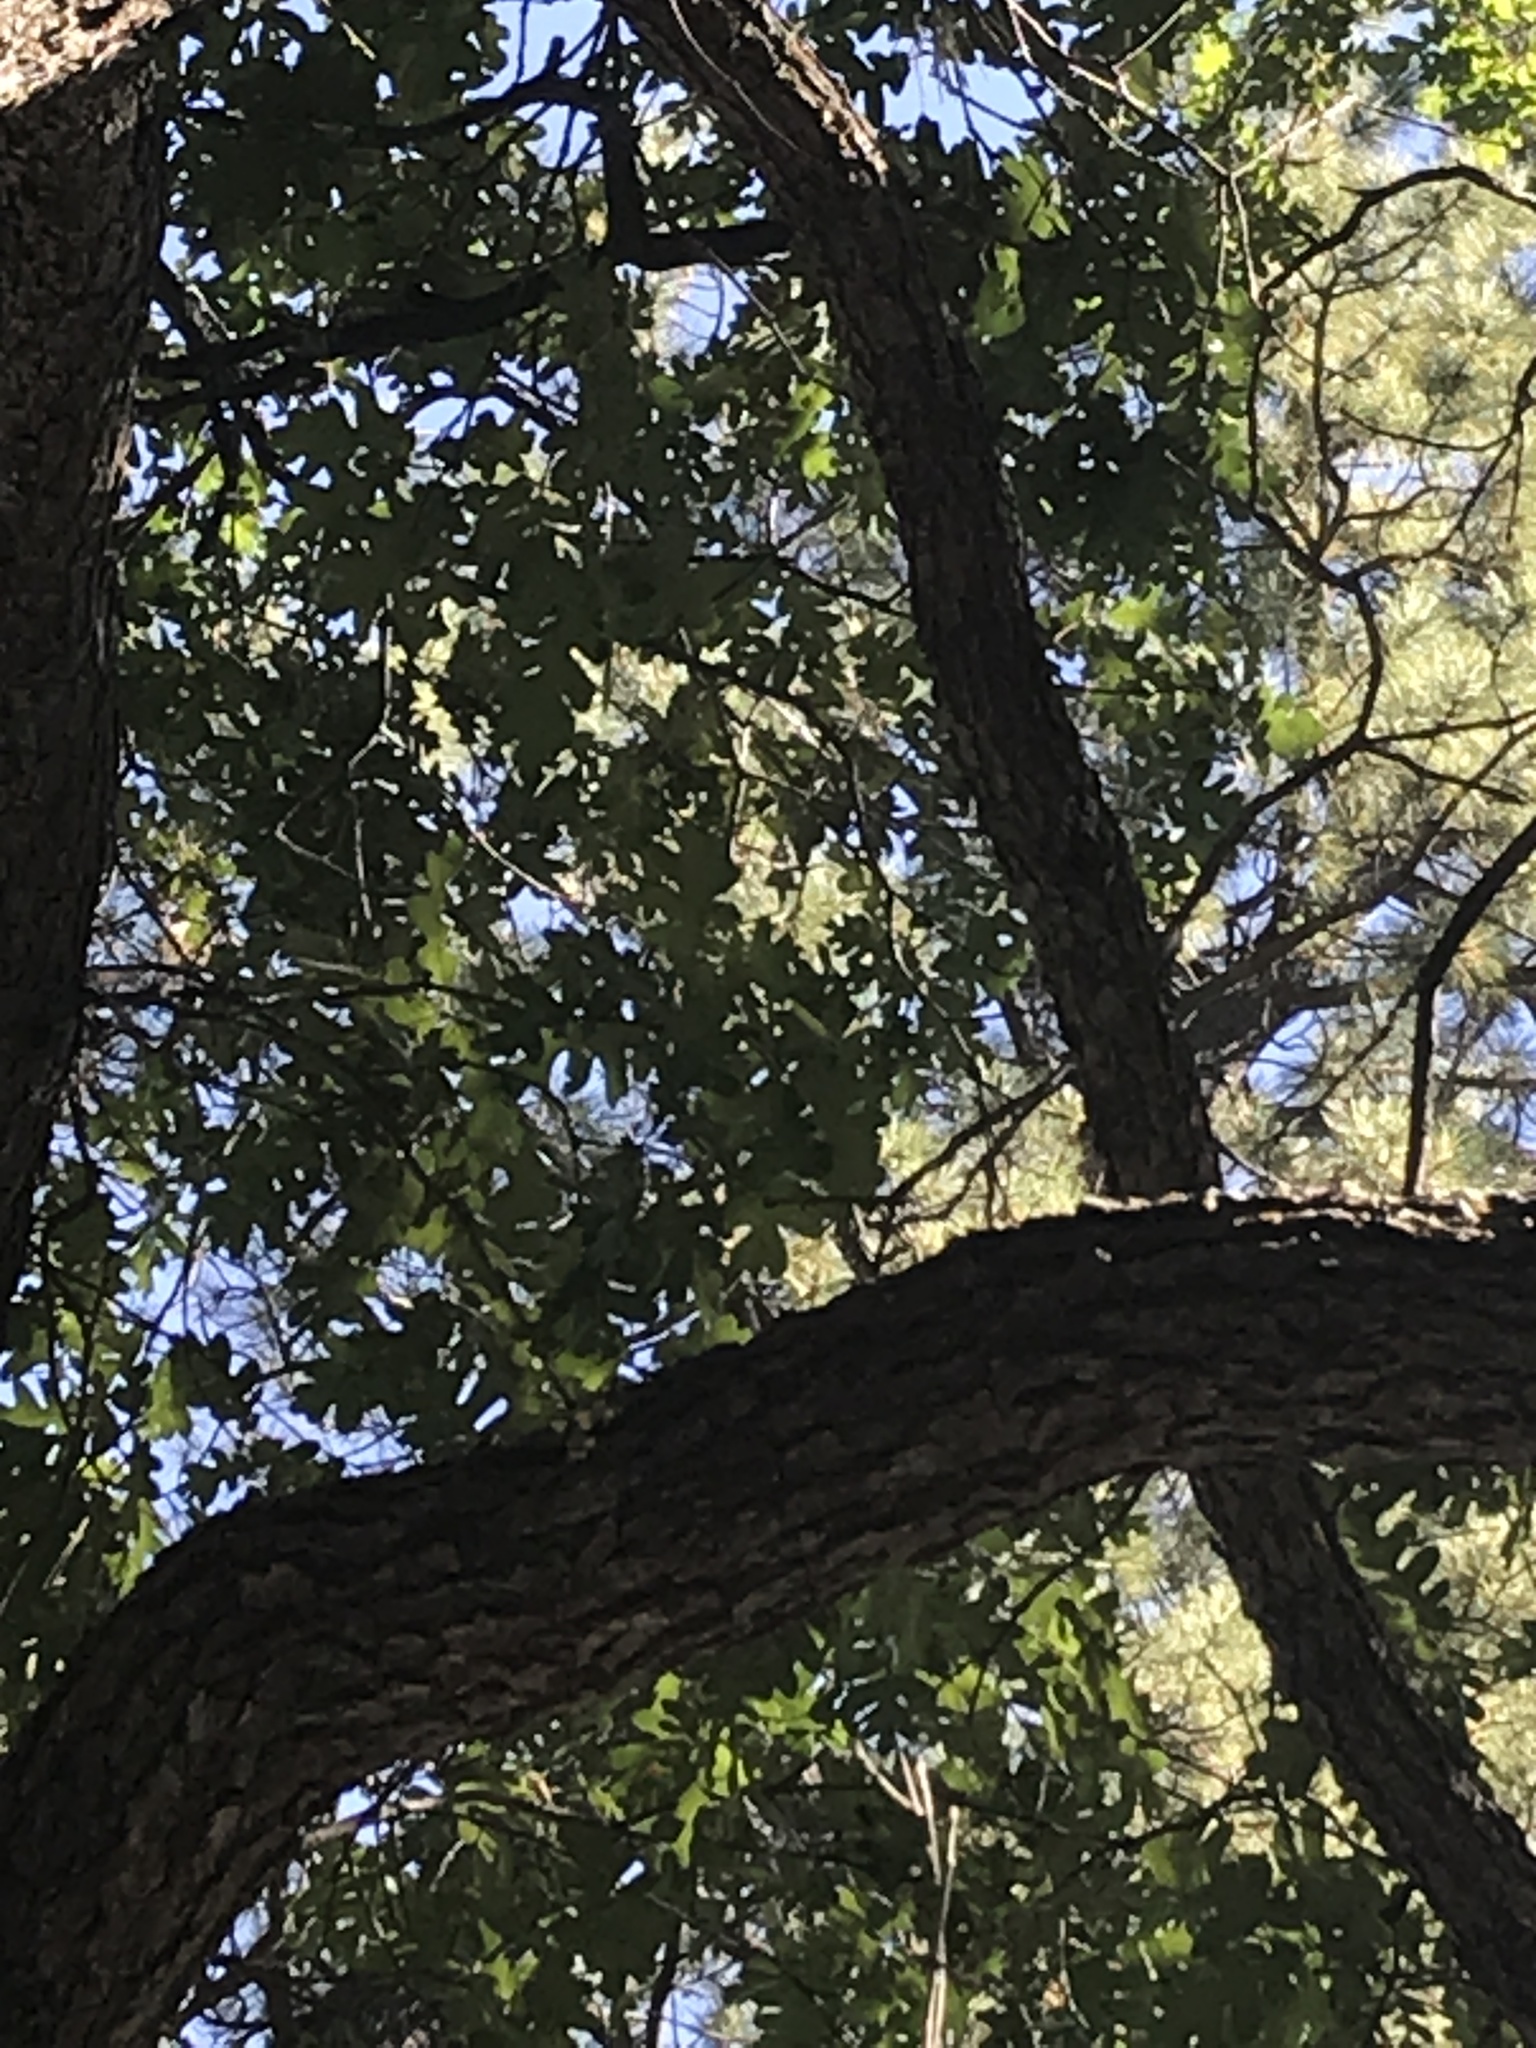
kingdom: Plantae
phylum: Tracheophyta
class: Magnoliopsida
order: Fagales
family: Fagaceae
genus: Quercus
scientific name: Quercus gambelii
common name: Gambel oak
